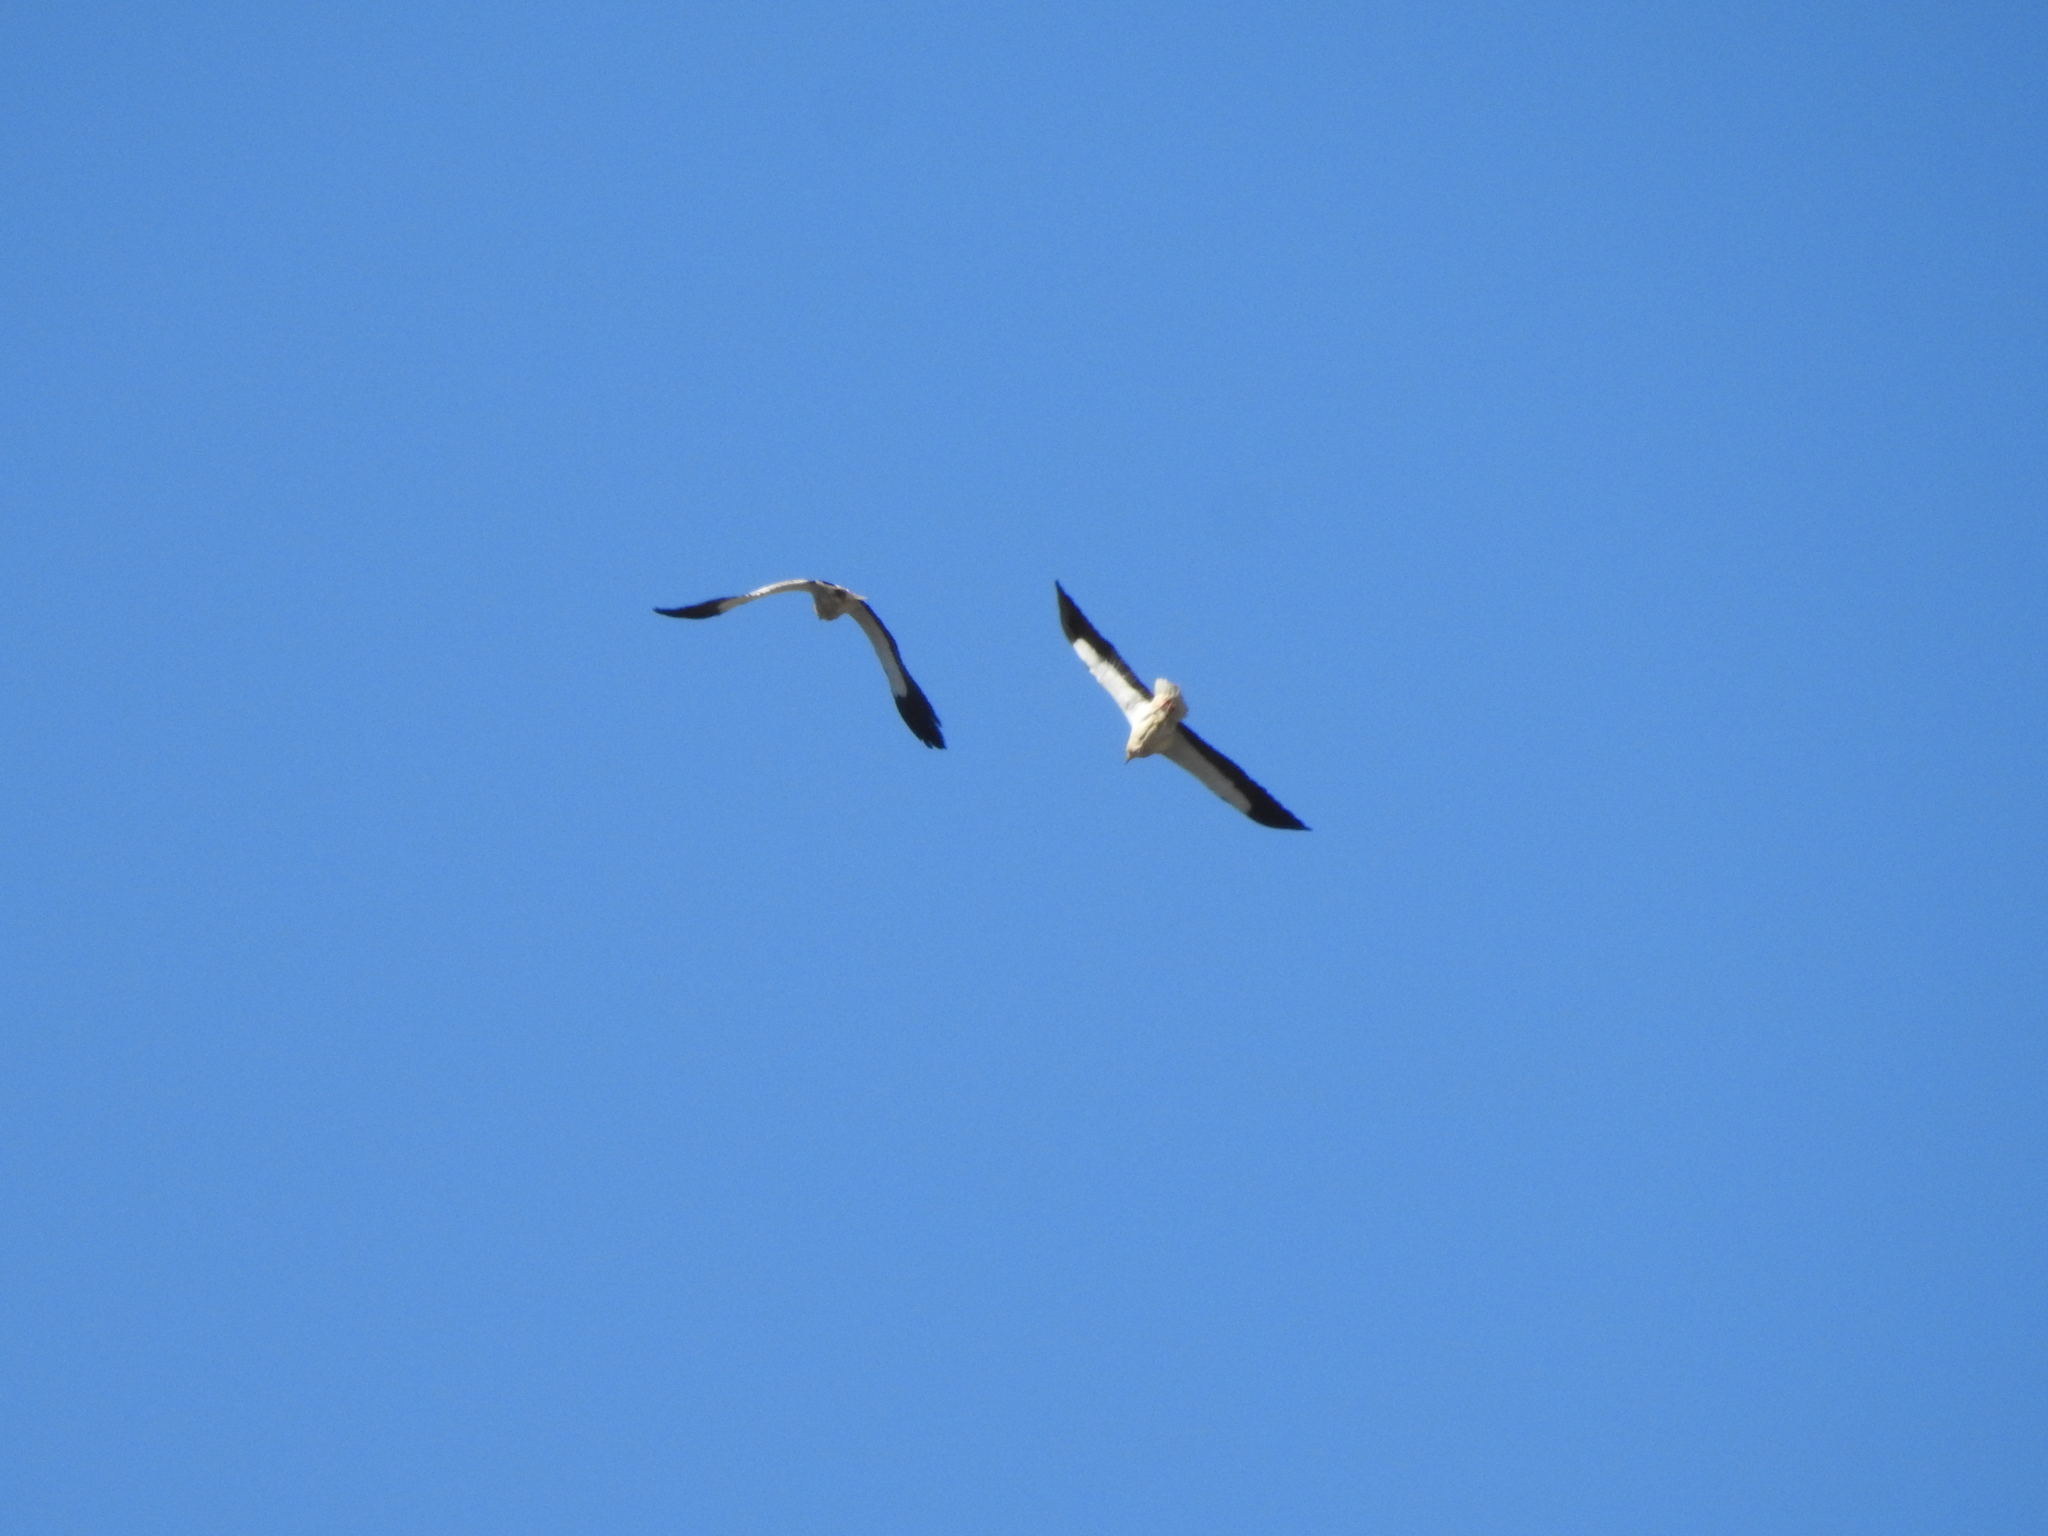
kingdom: Animalia
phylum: Chordata
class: Aves
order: Accipitriformes
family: Accipitridae
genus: Neophron
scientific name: Neophron percnopterus
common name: Egyptian vulture
